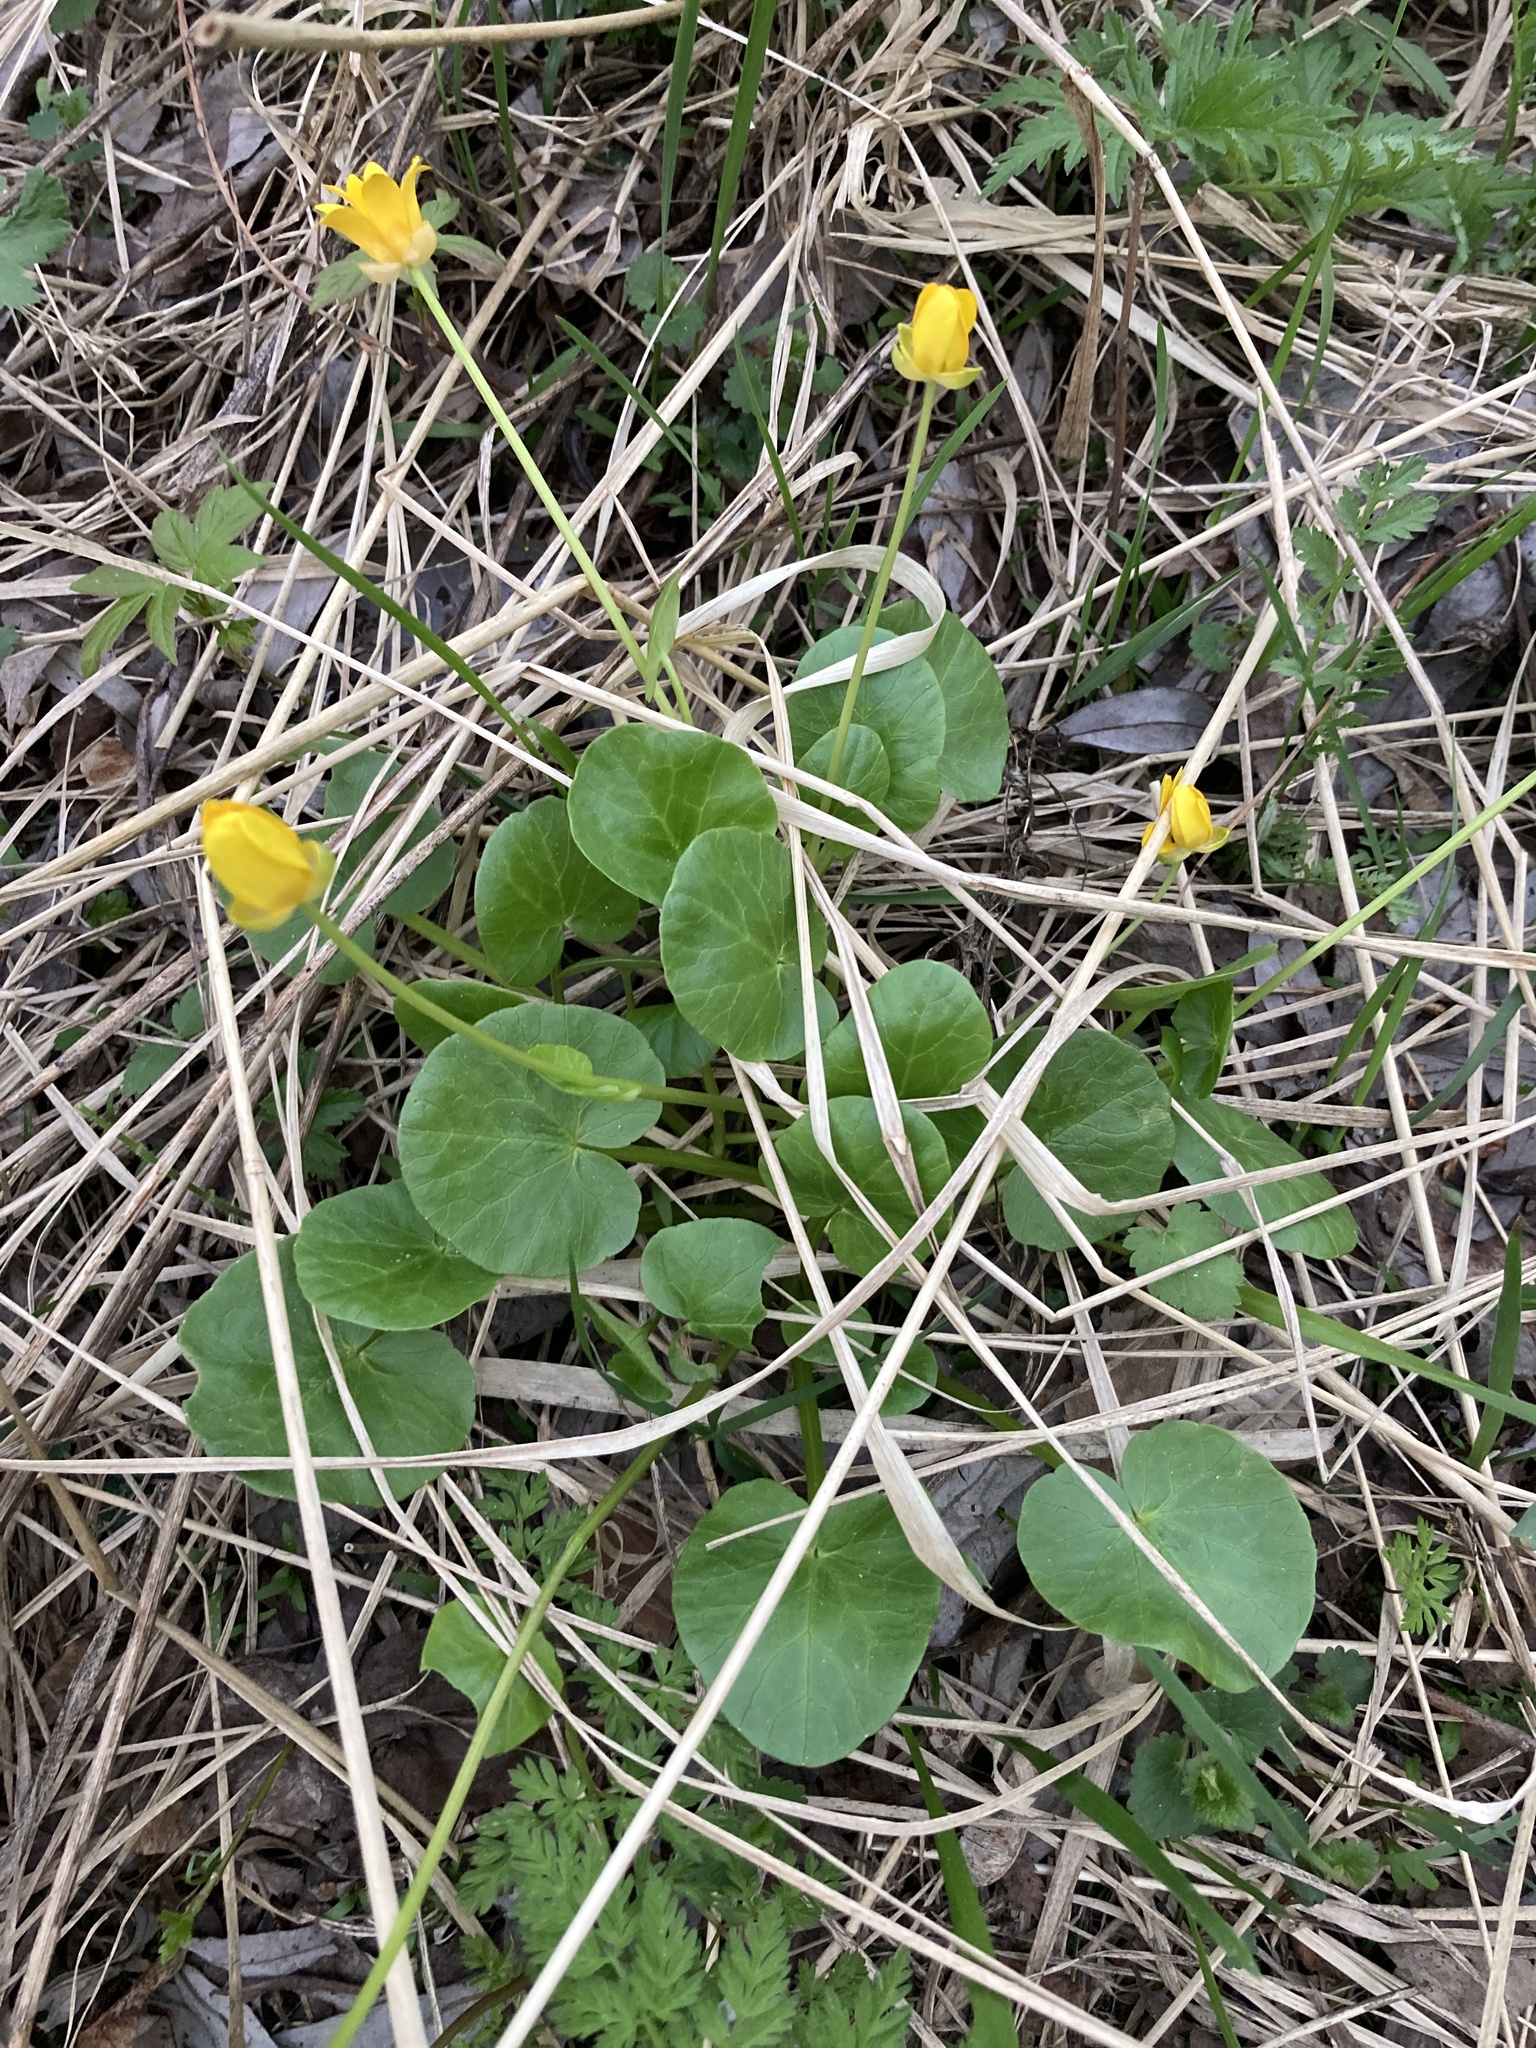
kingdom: Plantae
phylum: Tracheophyta
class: Magnoliopsida
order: Ranunculales
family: Ranunculaceae
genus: Ficaria
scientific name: Ficaria verna
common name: Lesser celandine
